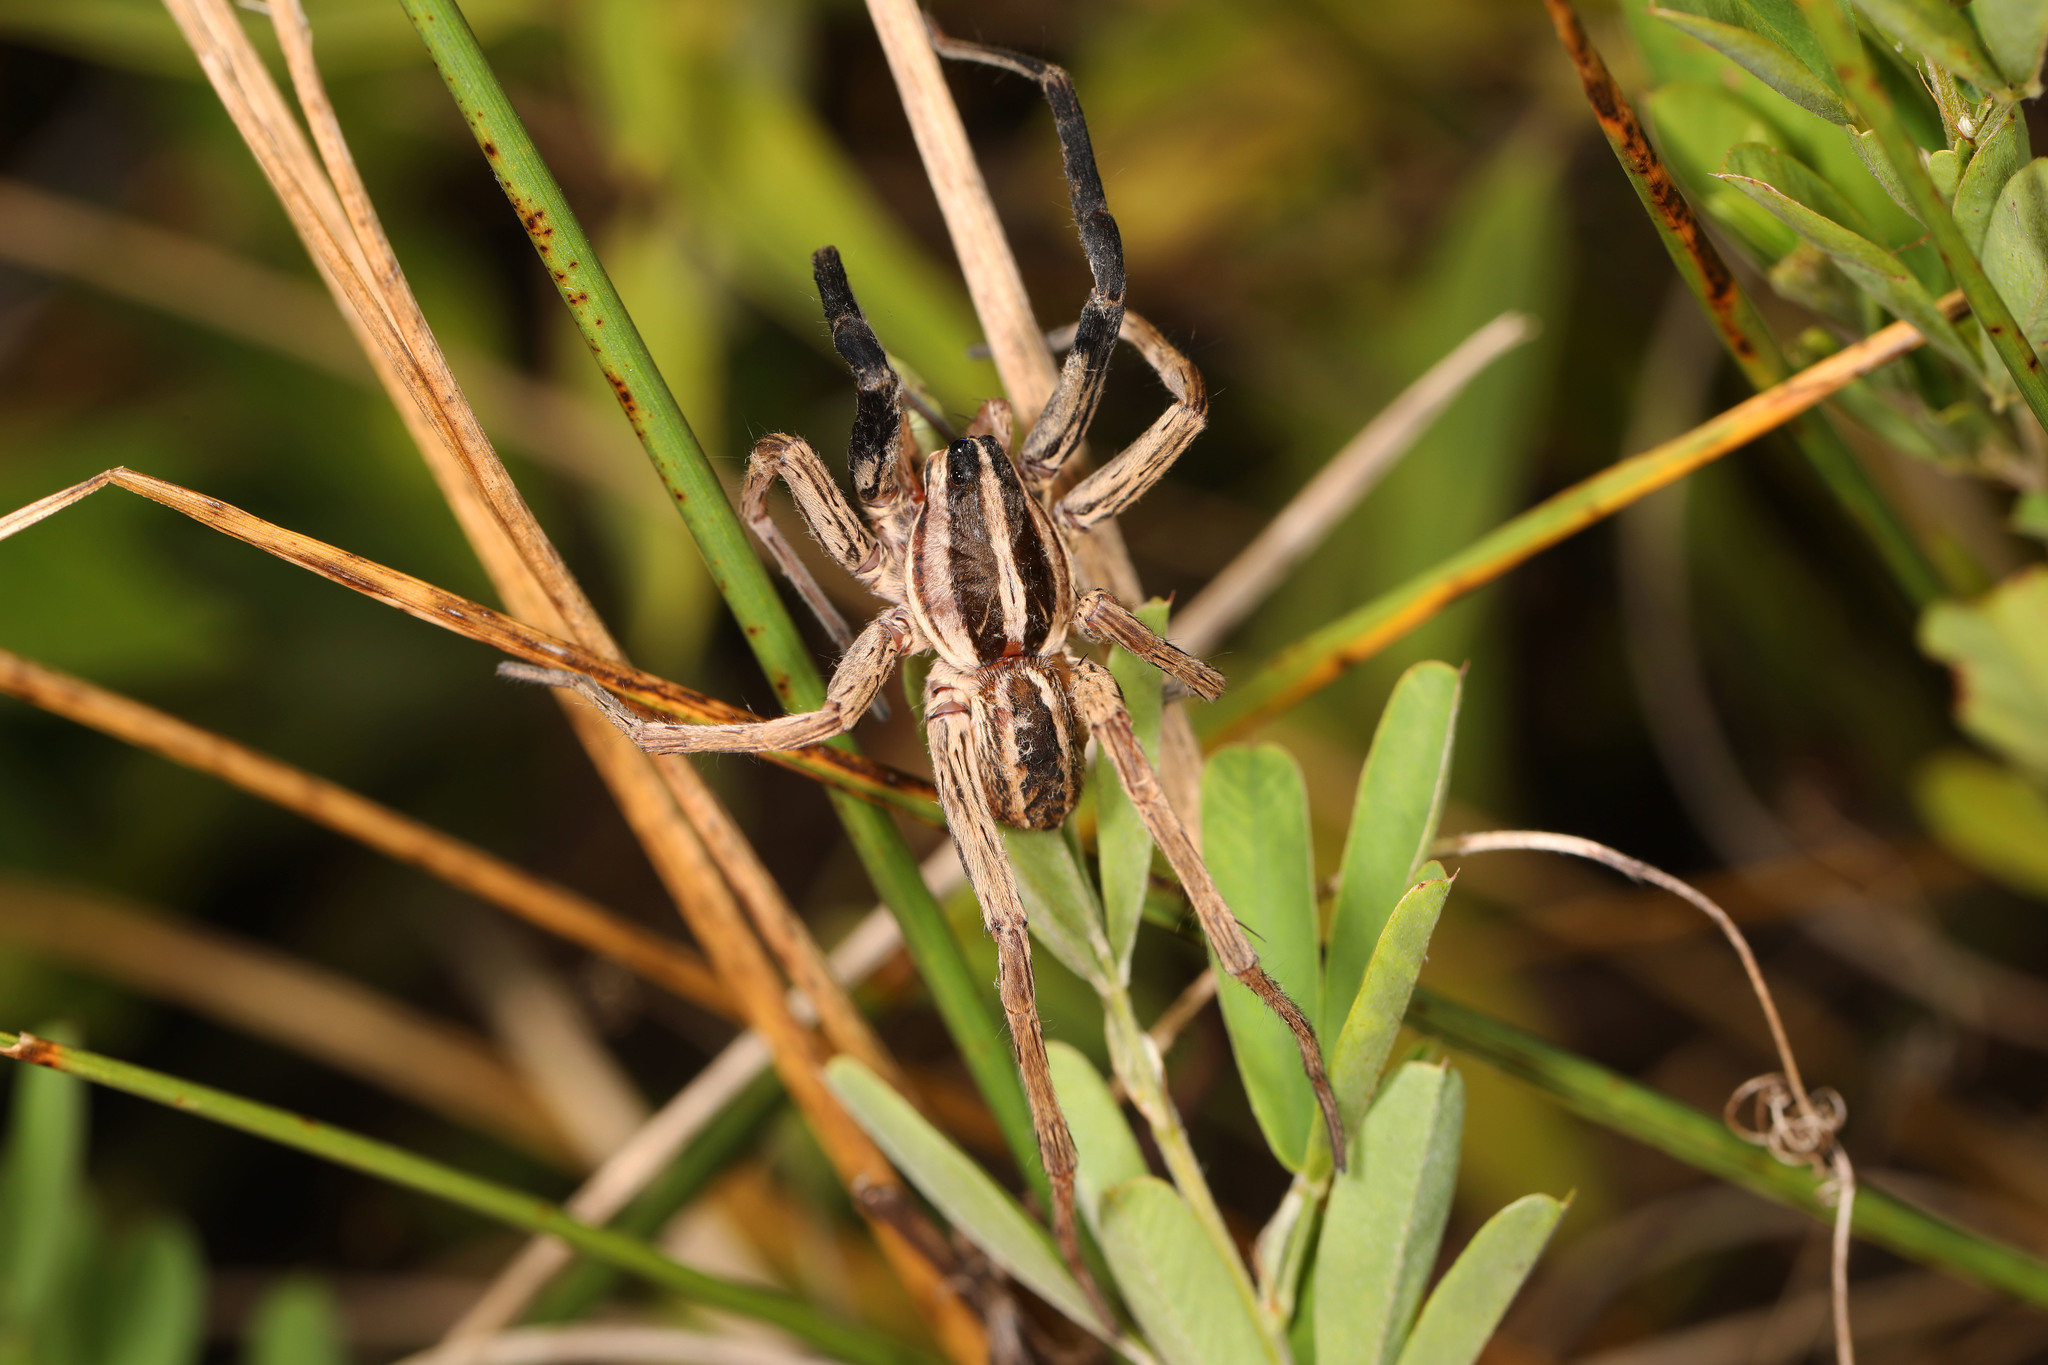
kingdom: Animalia
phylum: Arthropoda
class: Arachnida
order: Araneae
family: Lycosidae
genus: Rabidosa
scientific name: Rabidosa rabida
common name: Rabid wolf spider
